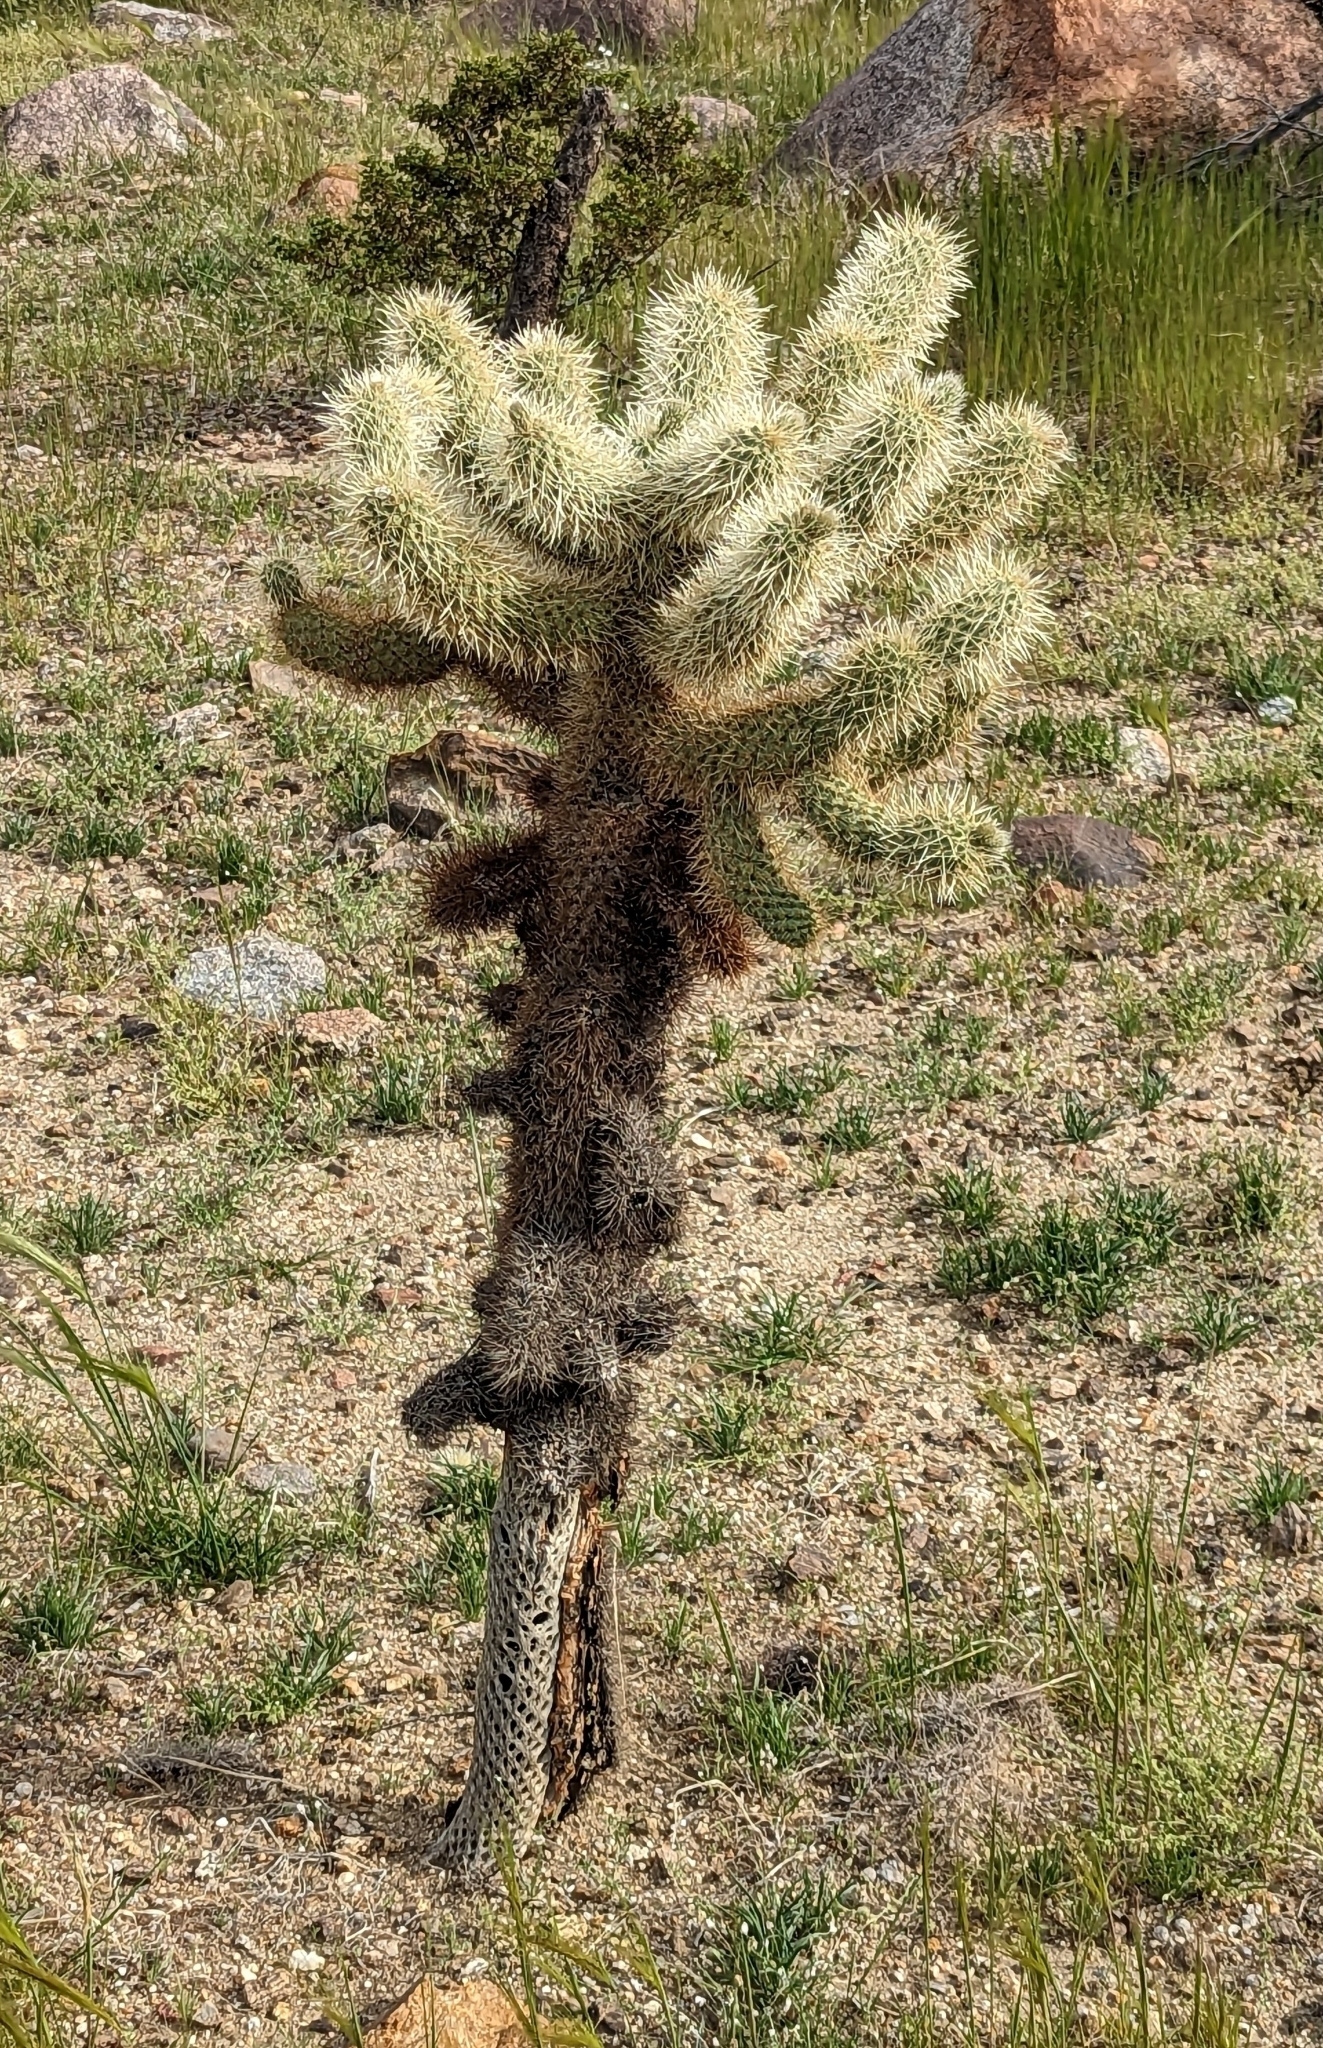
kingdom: Plantae
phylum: Tracheophyta
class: Magnoliopsida
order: Caryophyllales
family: Cactaceae
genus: Cylindropuntia
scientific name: Cylindropuntia fosbergii
